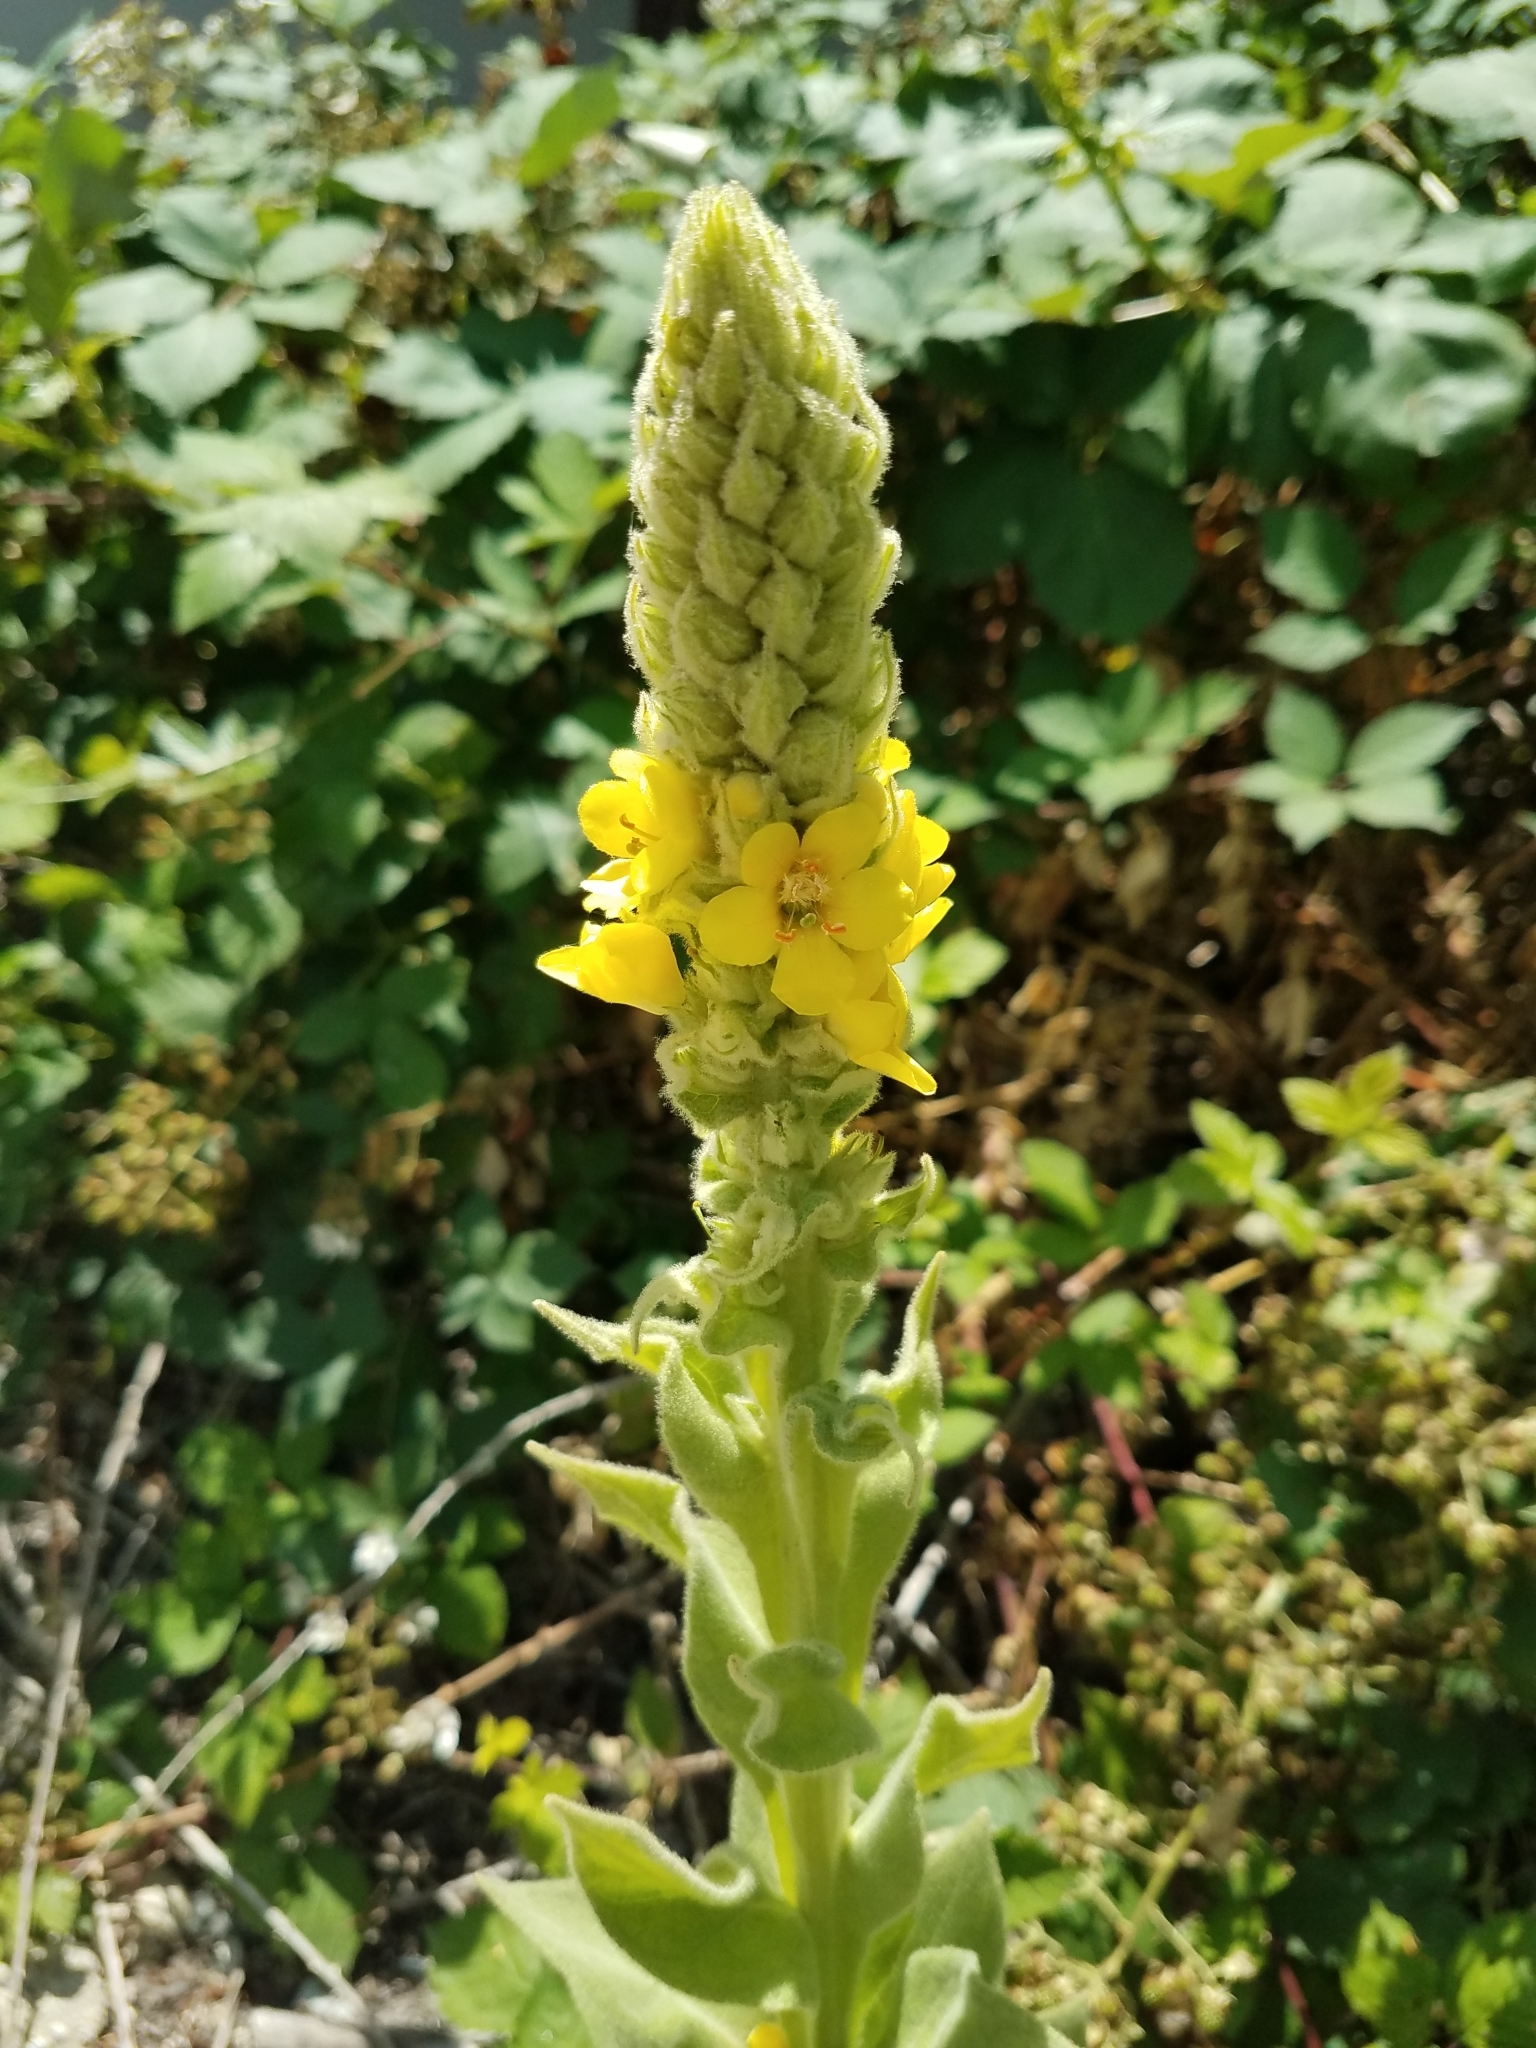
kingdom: Plantae
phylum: Tracheophyta
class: Magnoliopsida
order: Lamiales
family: Scrophulariaceae
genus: Verbascum
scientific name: Verbascum thapsus
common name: Common mullein
